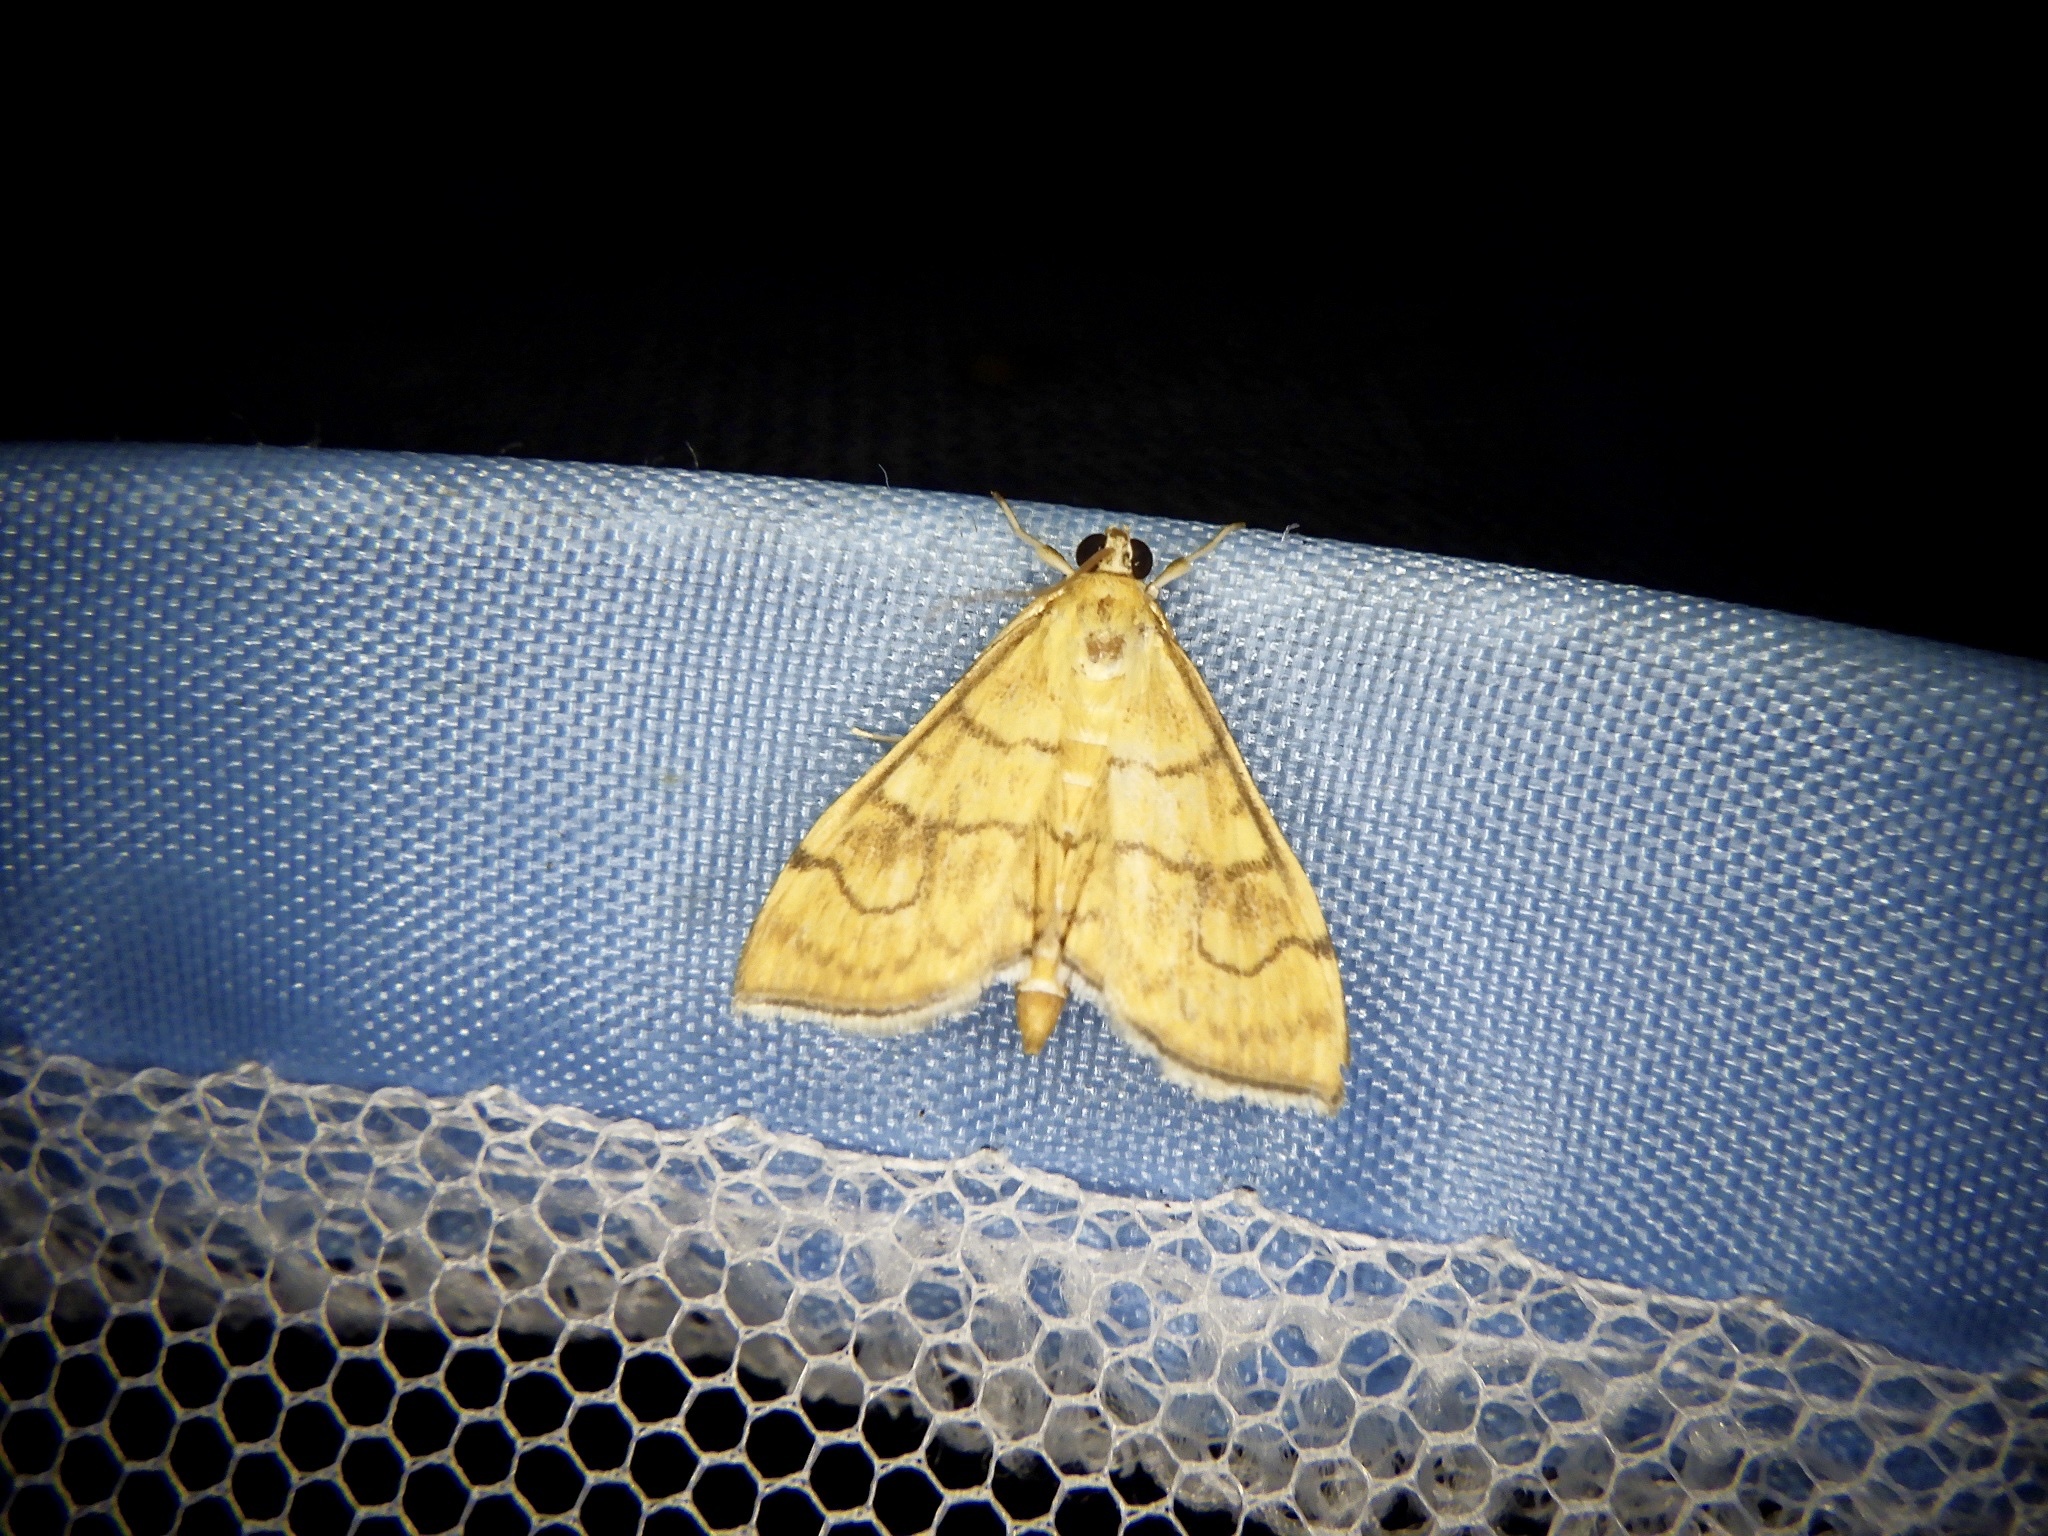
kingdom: Animalia
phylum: Arthropoda
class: Insecta
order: Lepidoptera
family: Crambidae
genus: Anania
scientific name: Anania verbascalis
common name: Golden pearl
